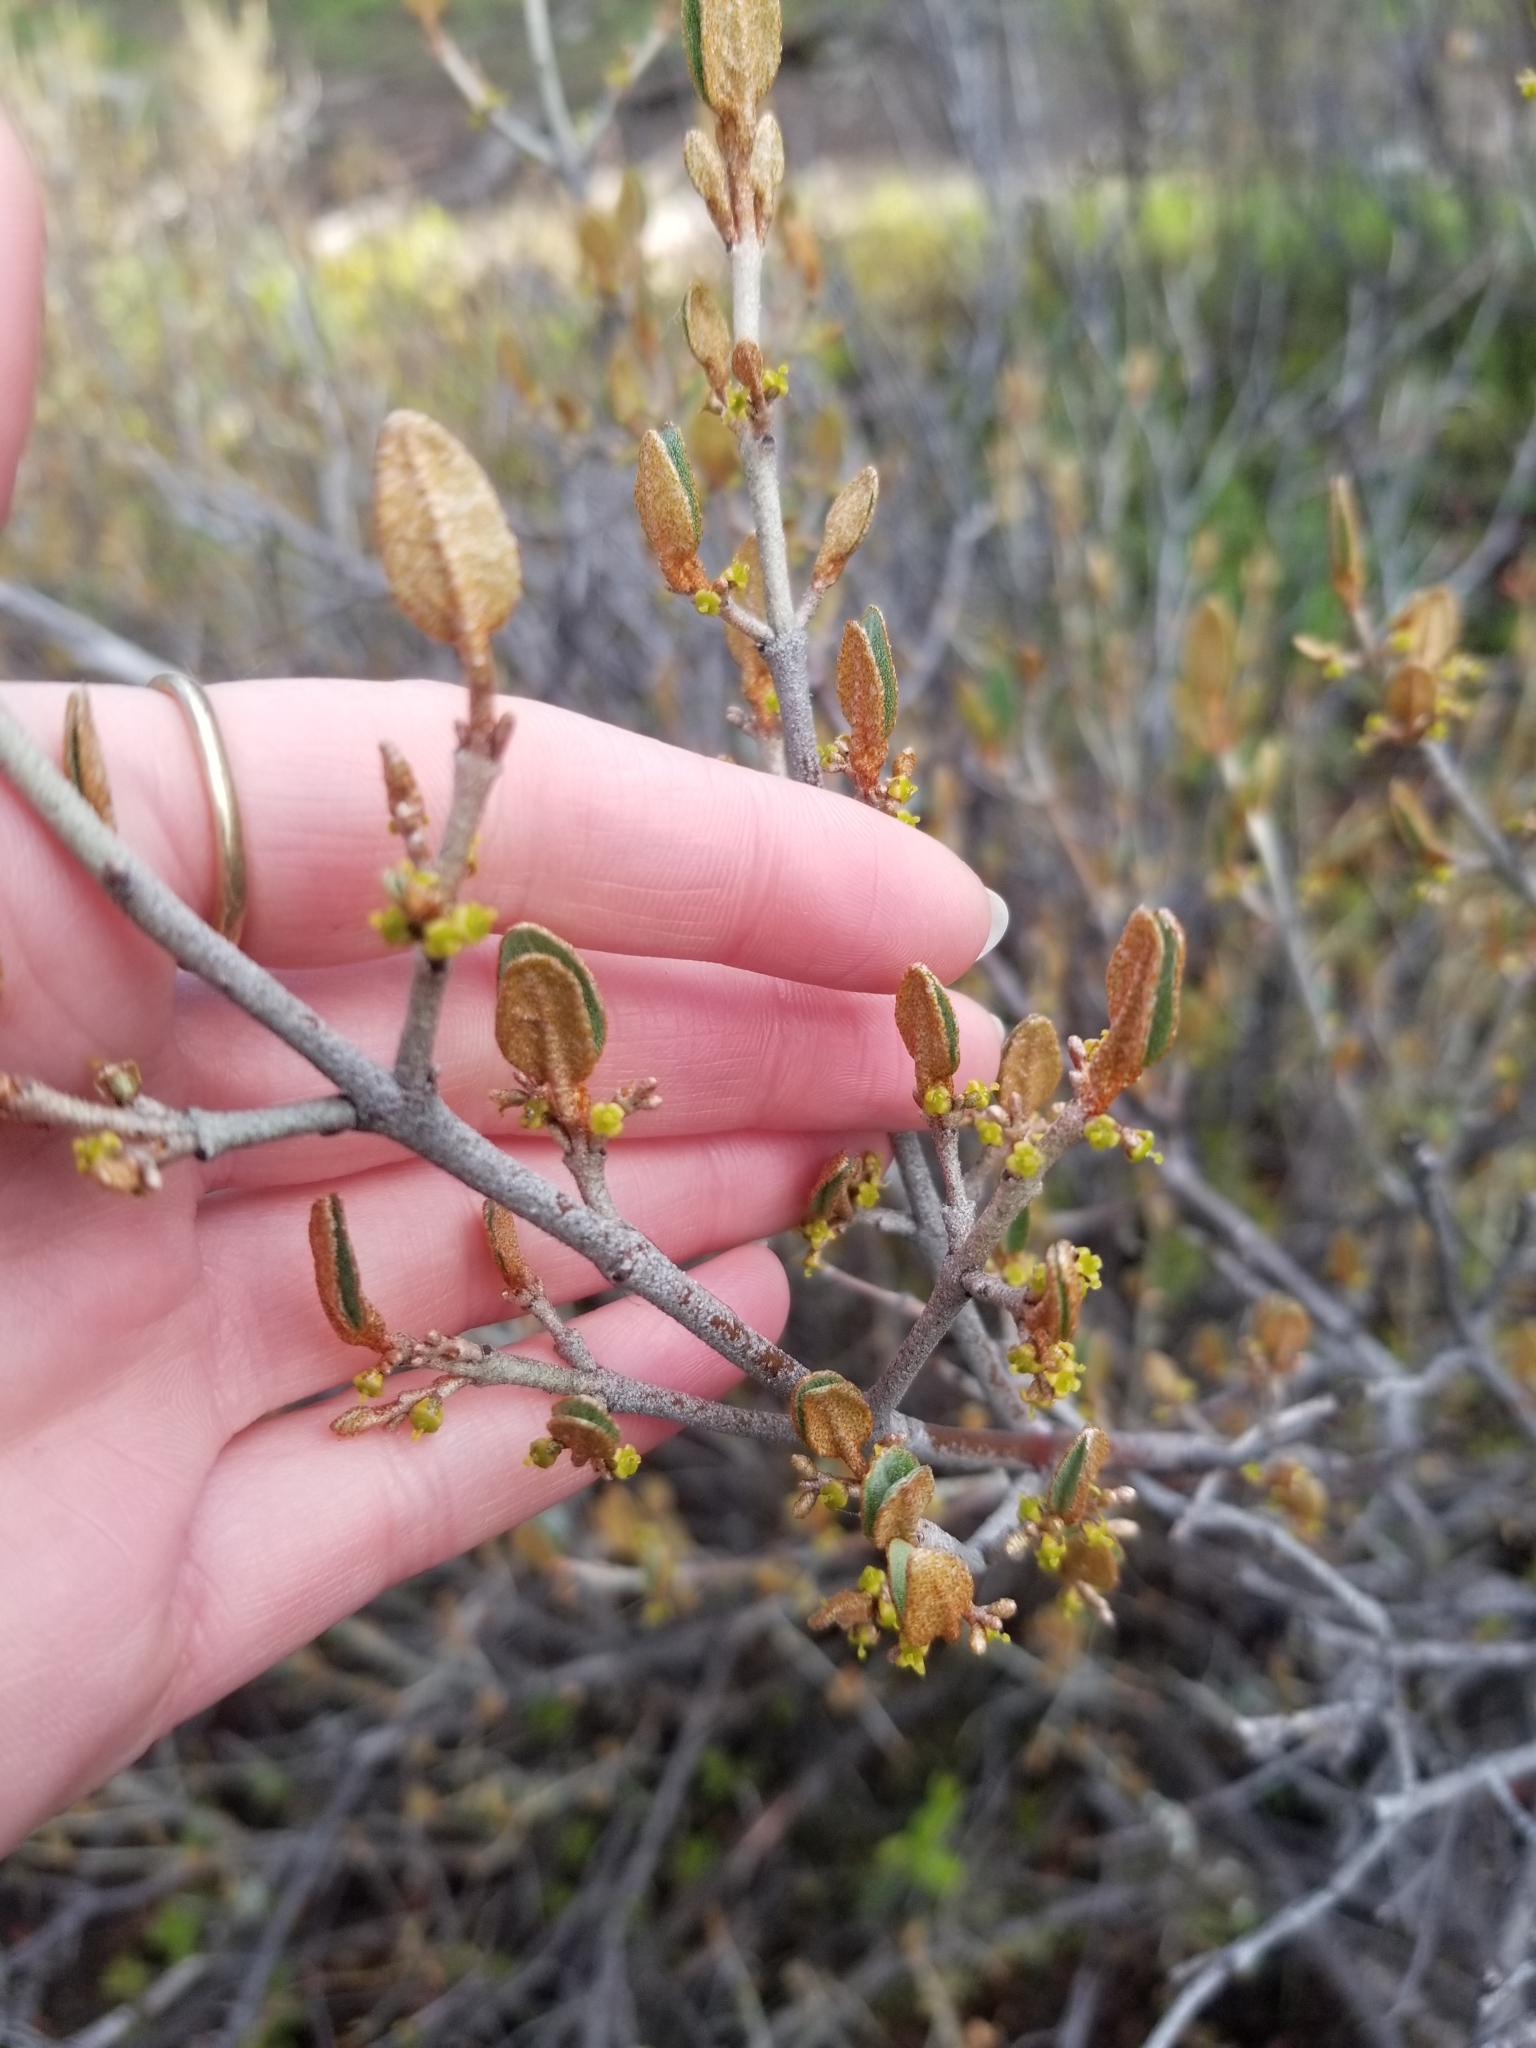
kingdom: Plantae
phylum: Tracheophyta
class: Magnoliopsida
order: Rosales
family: Elaeagnaceae
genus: Shepherdia
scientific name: Shepherdia canadensis
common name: Soapberry
